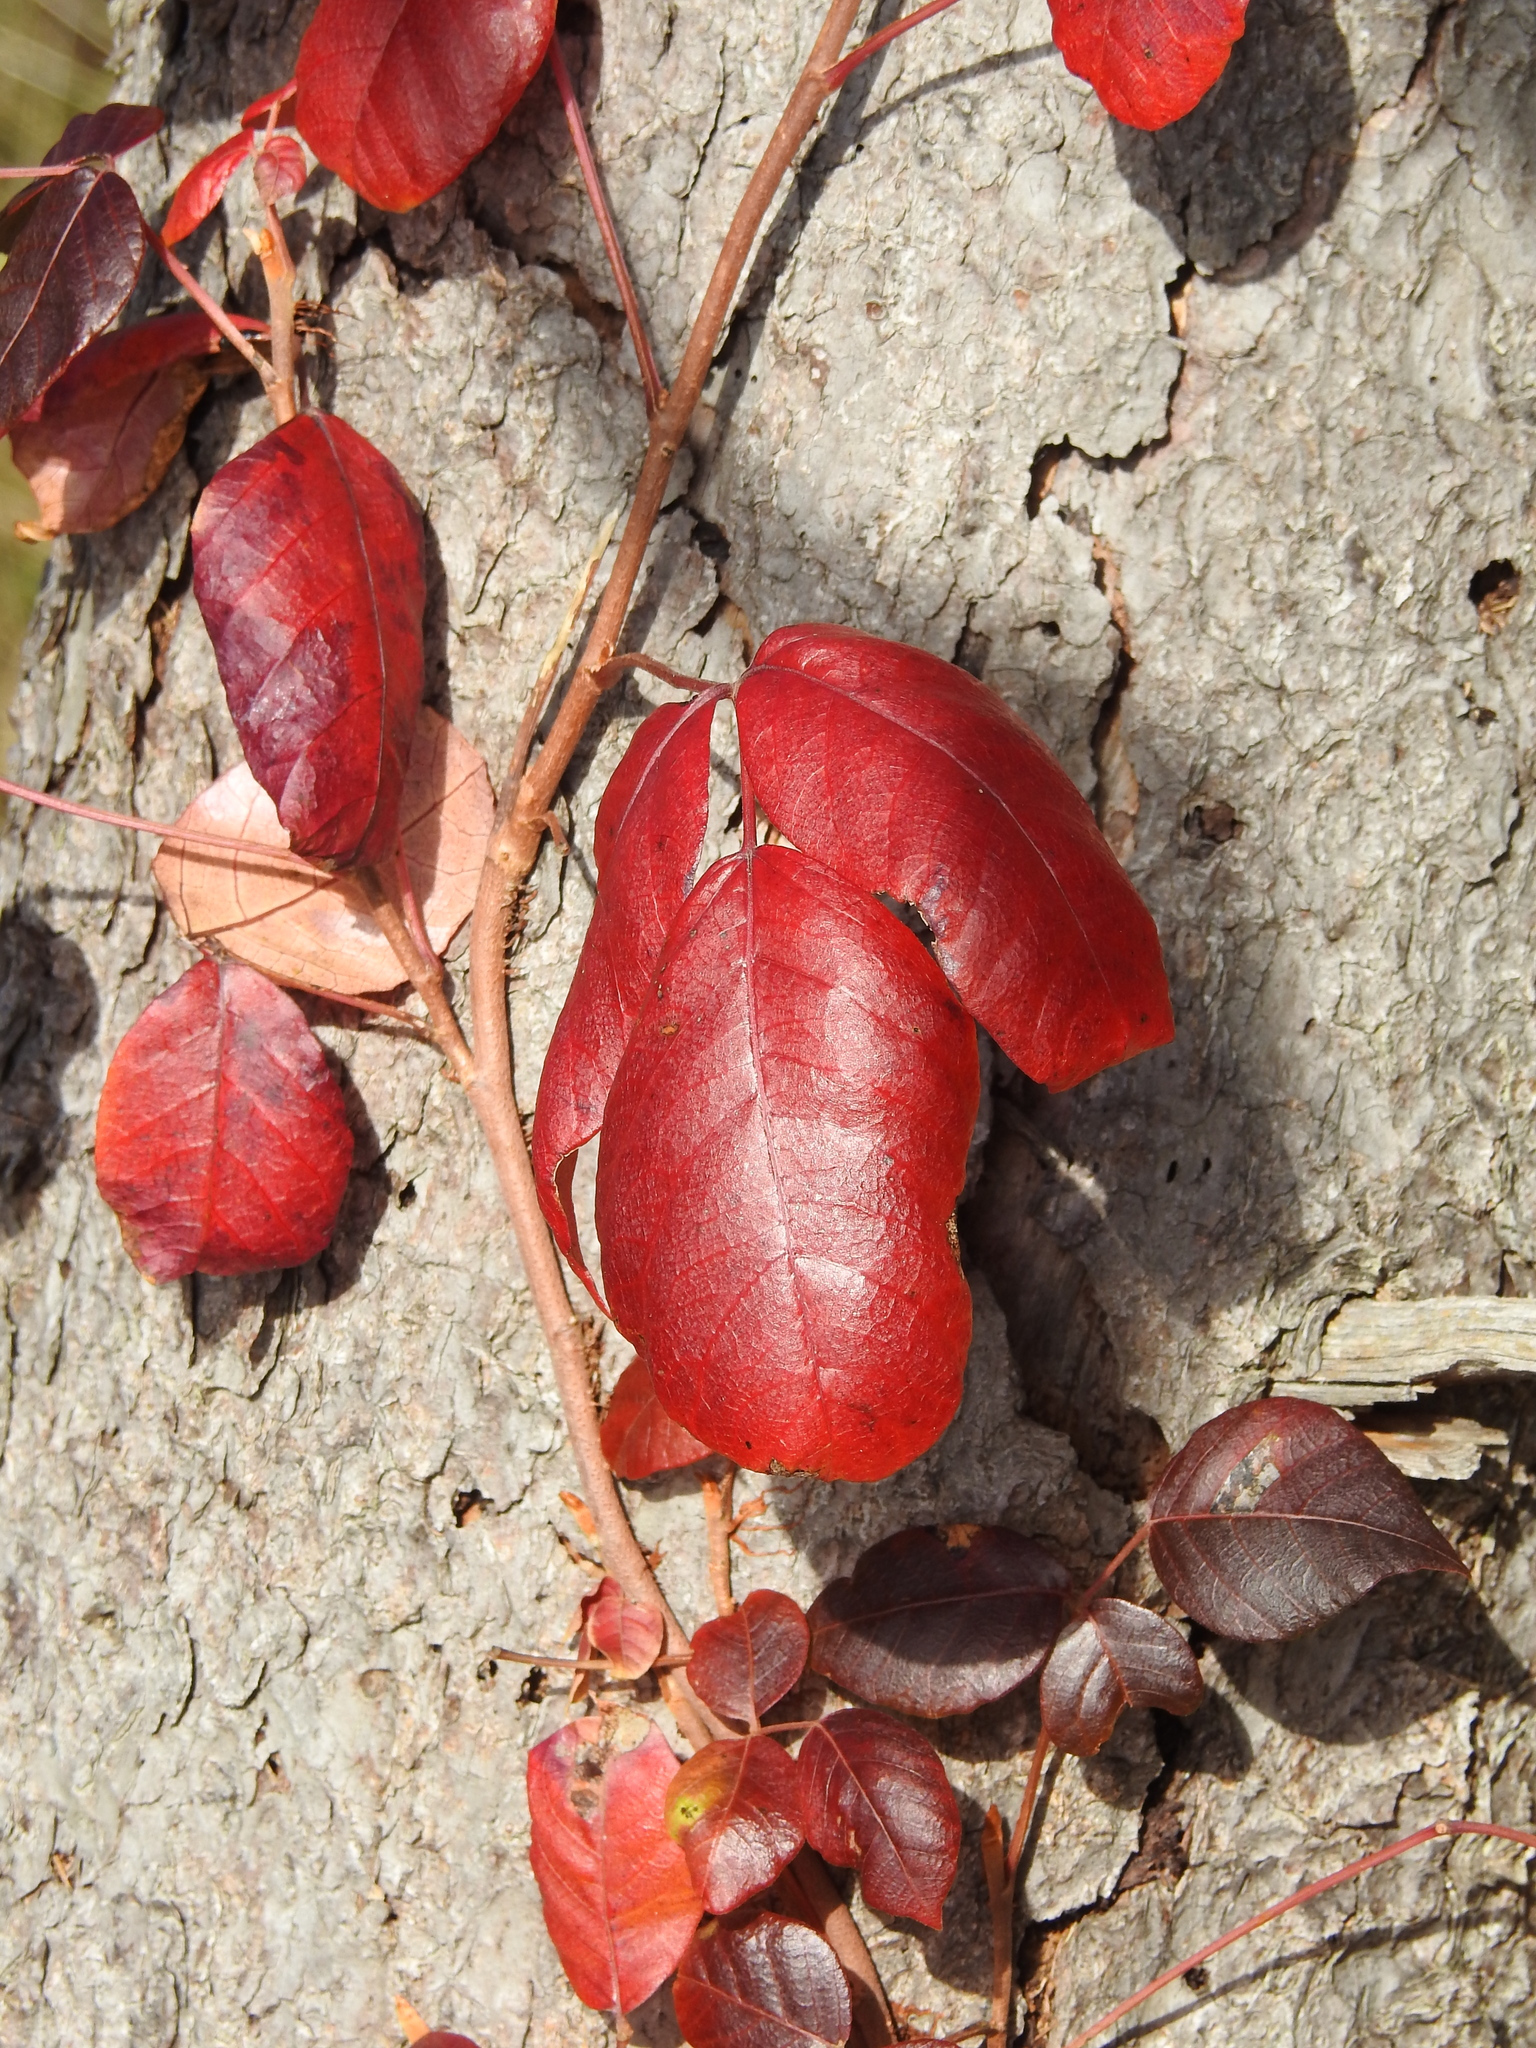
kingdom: Plantae
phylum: Tracheophyta
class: Magnoliopsida
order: Sapindales
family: Anacardiaceae
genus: Toxicodendron
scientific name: Toxicodendron radicans
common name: Poison ivy
